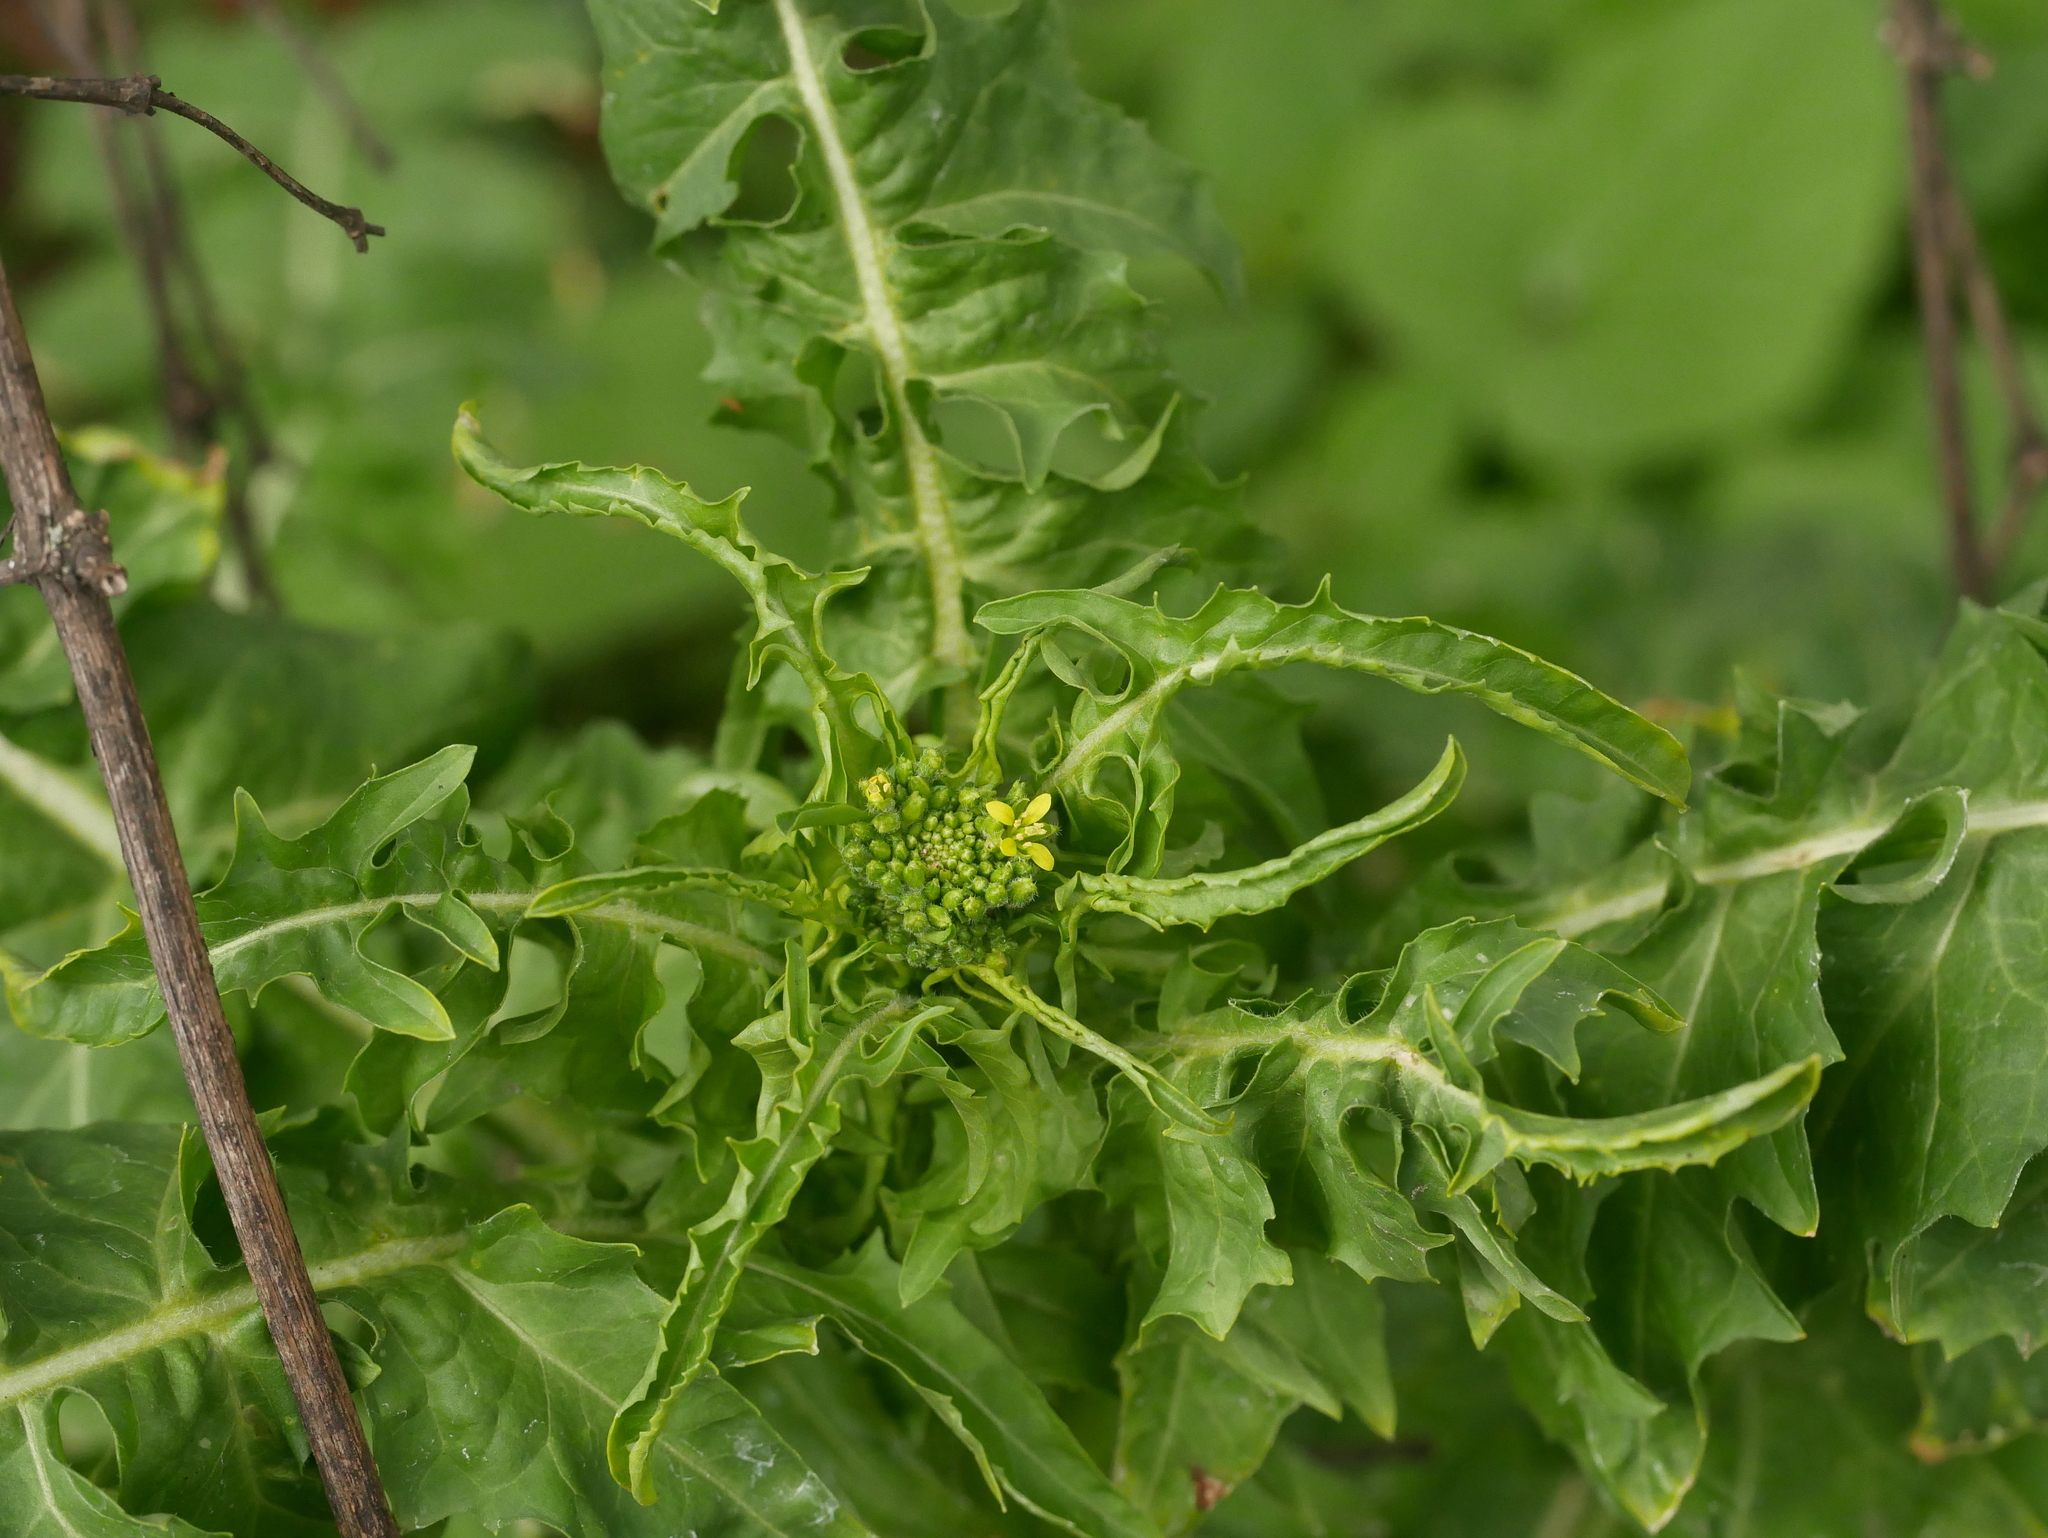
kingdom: Plantae
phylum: Tracheophyta
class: Magnoliopsida
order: Brassicales
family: Brassicaceae
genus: Sisymbrium
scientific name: Sisymbrium loeselii
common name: False london-rocket
